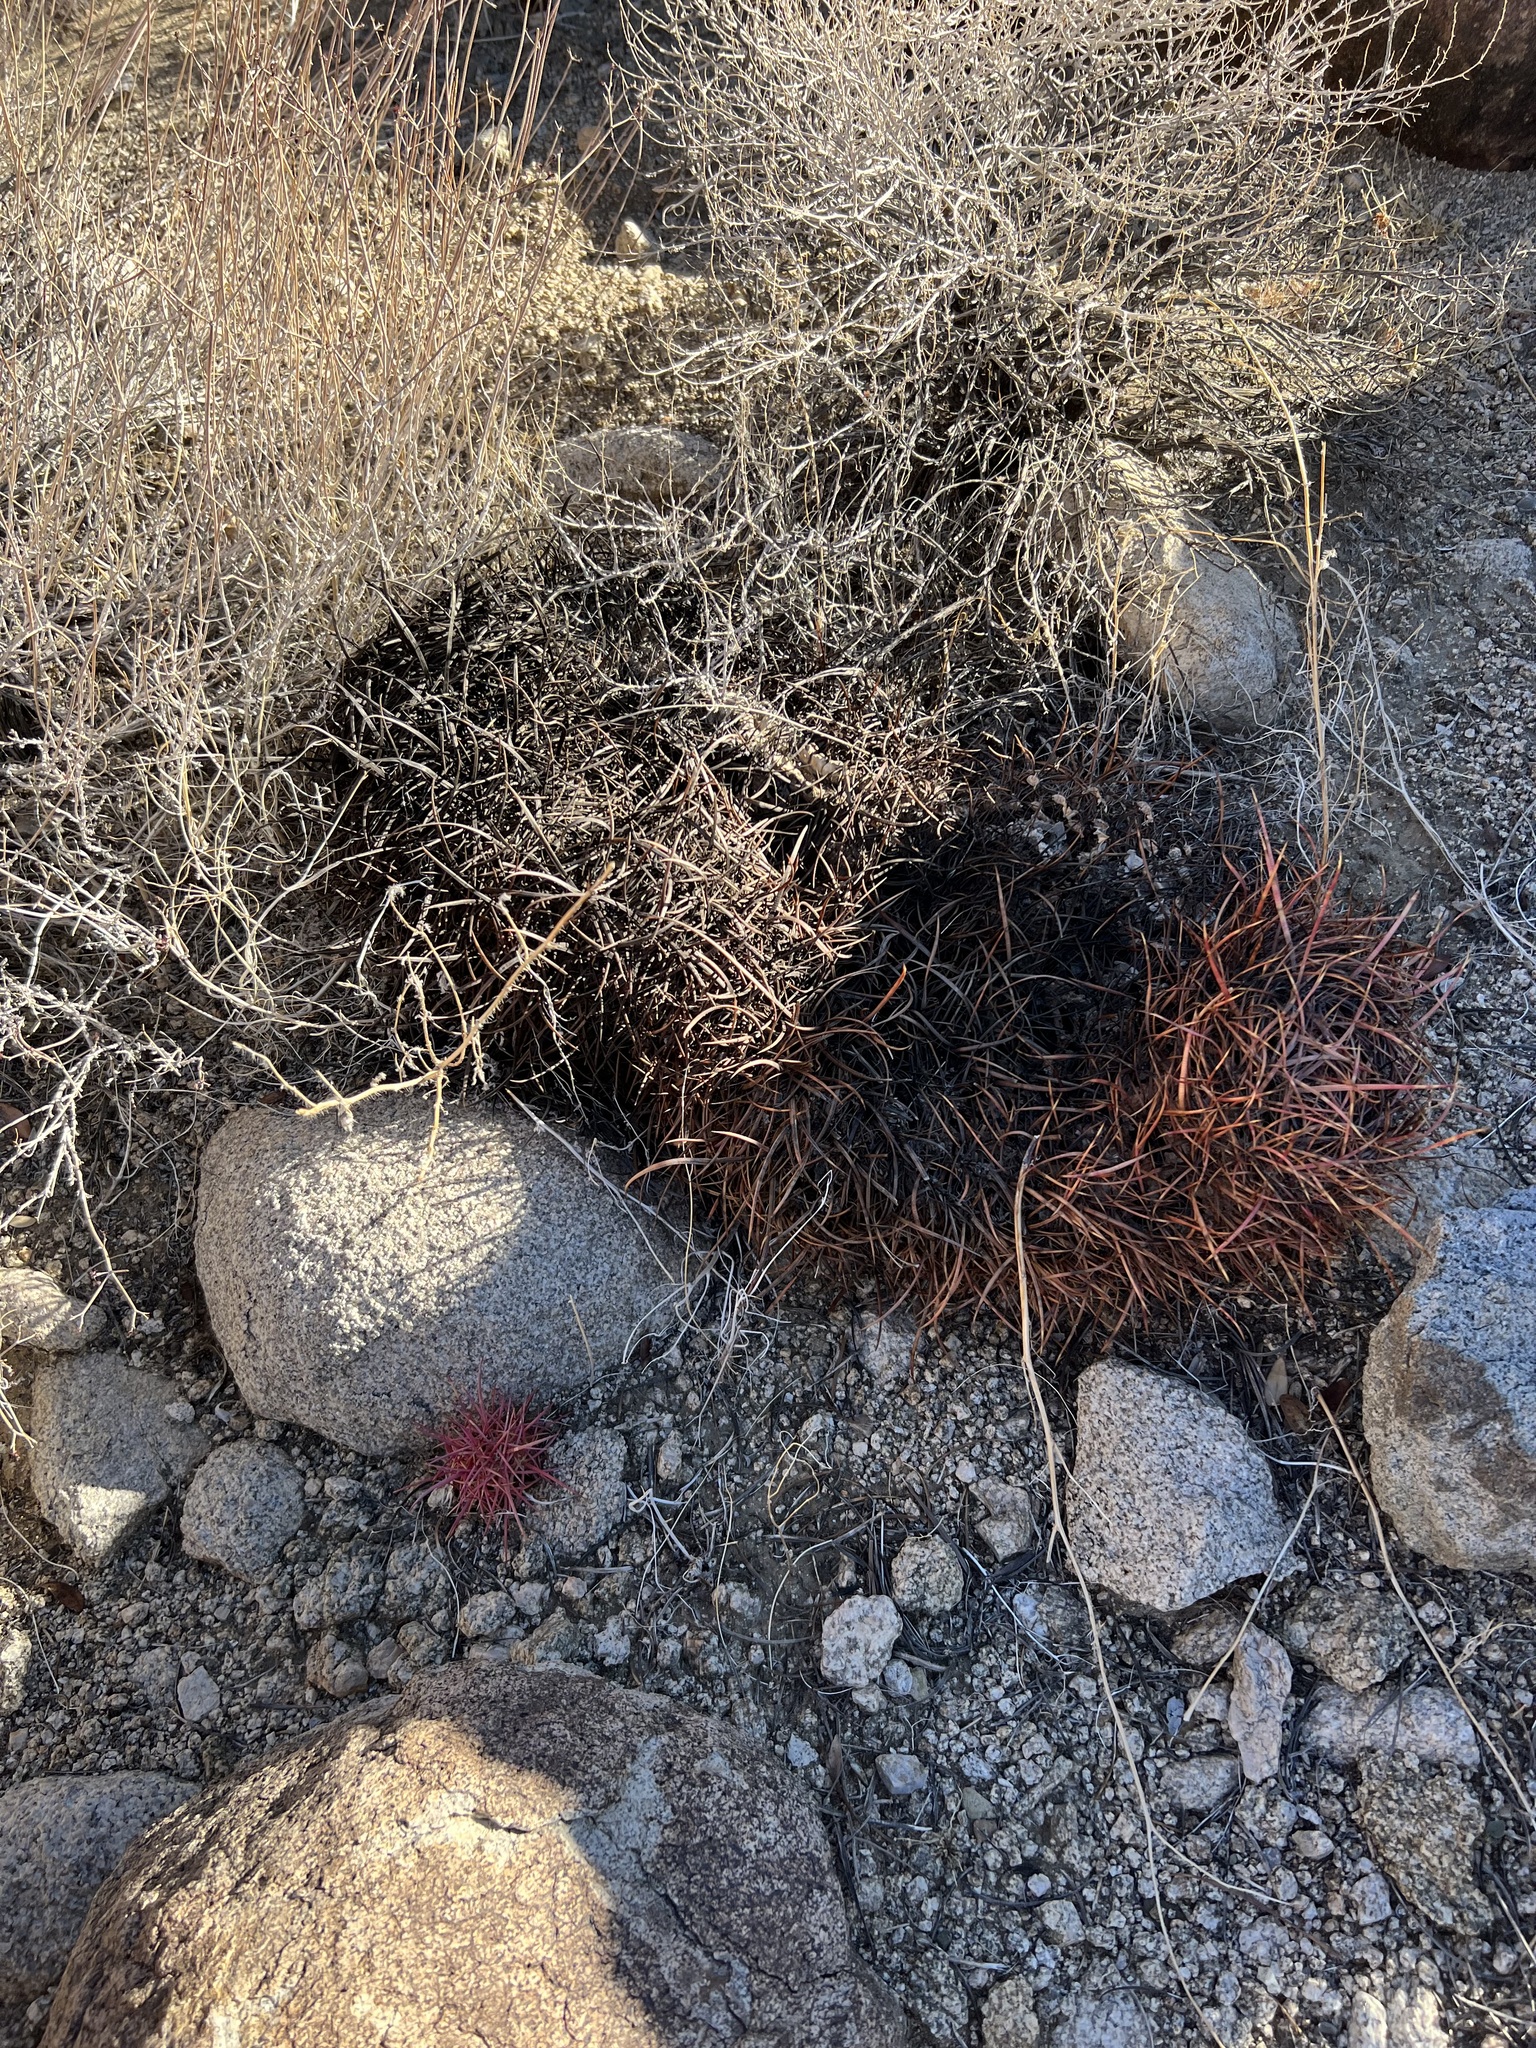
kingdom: Plantae
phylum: Tracheophyta
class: Magnoliopsida
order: Caryophyllales
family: Cactaceae
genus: Ferocactus
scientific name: Ferocactus cylindraceus
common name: California barrel cactus
